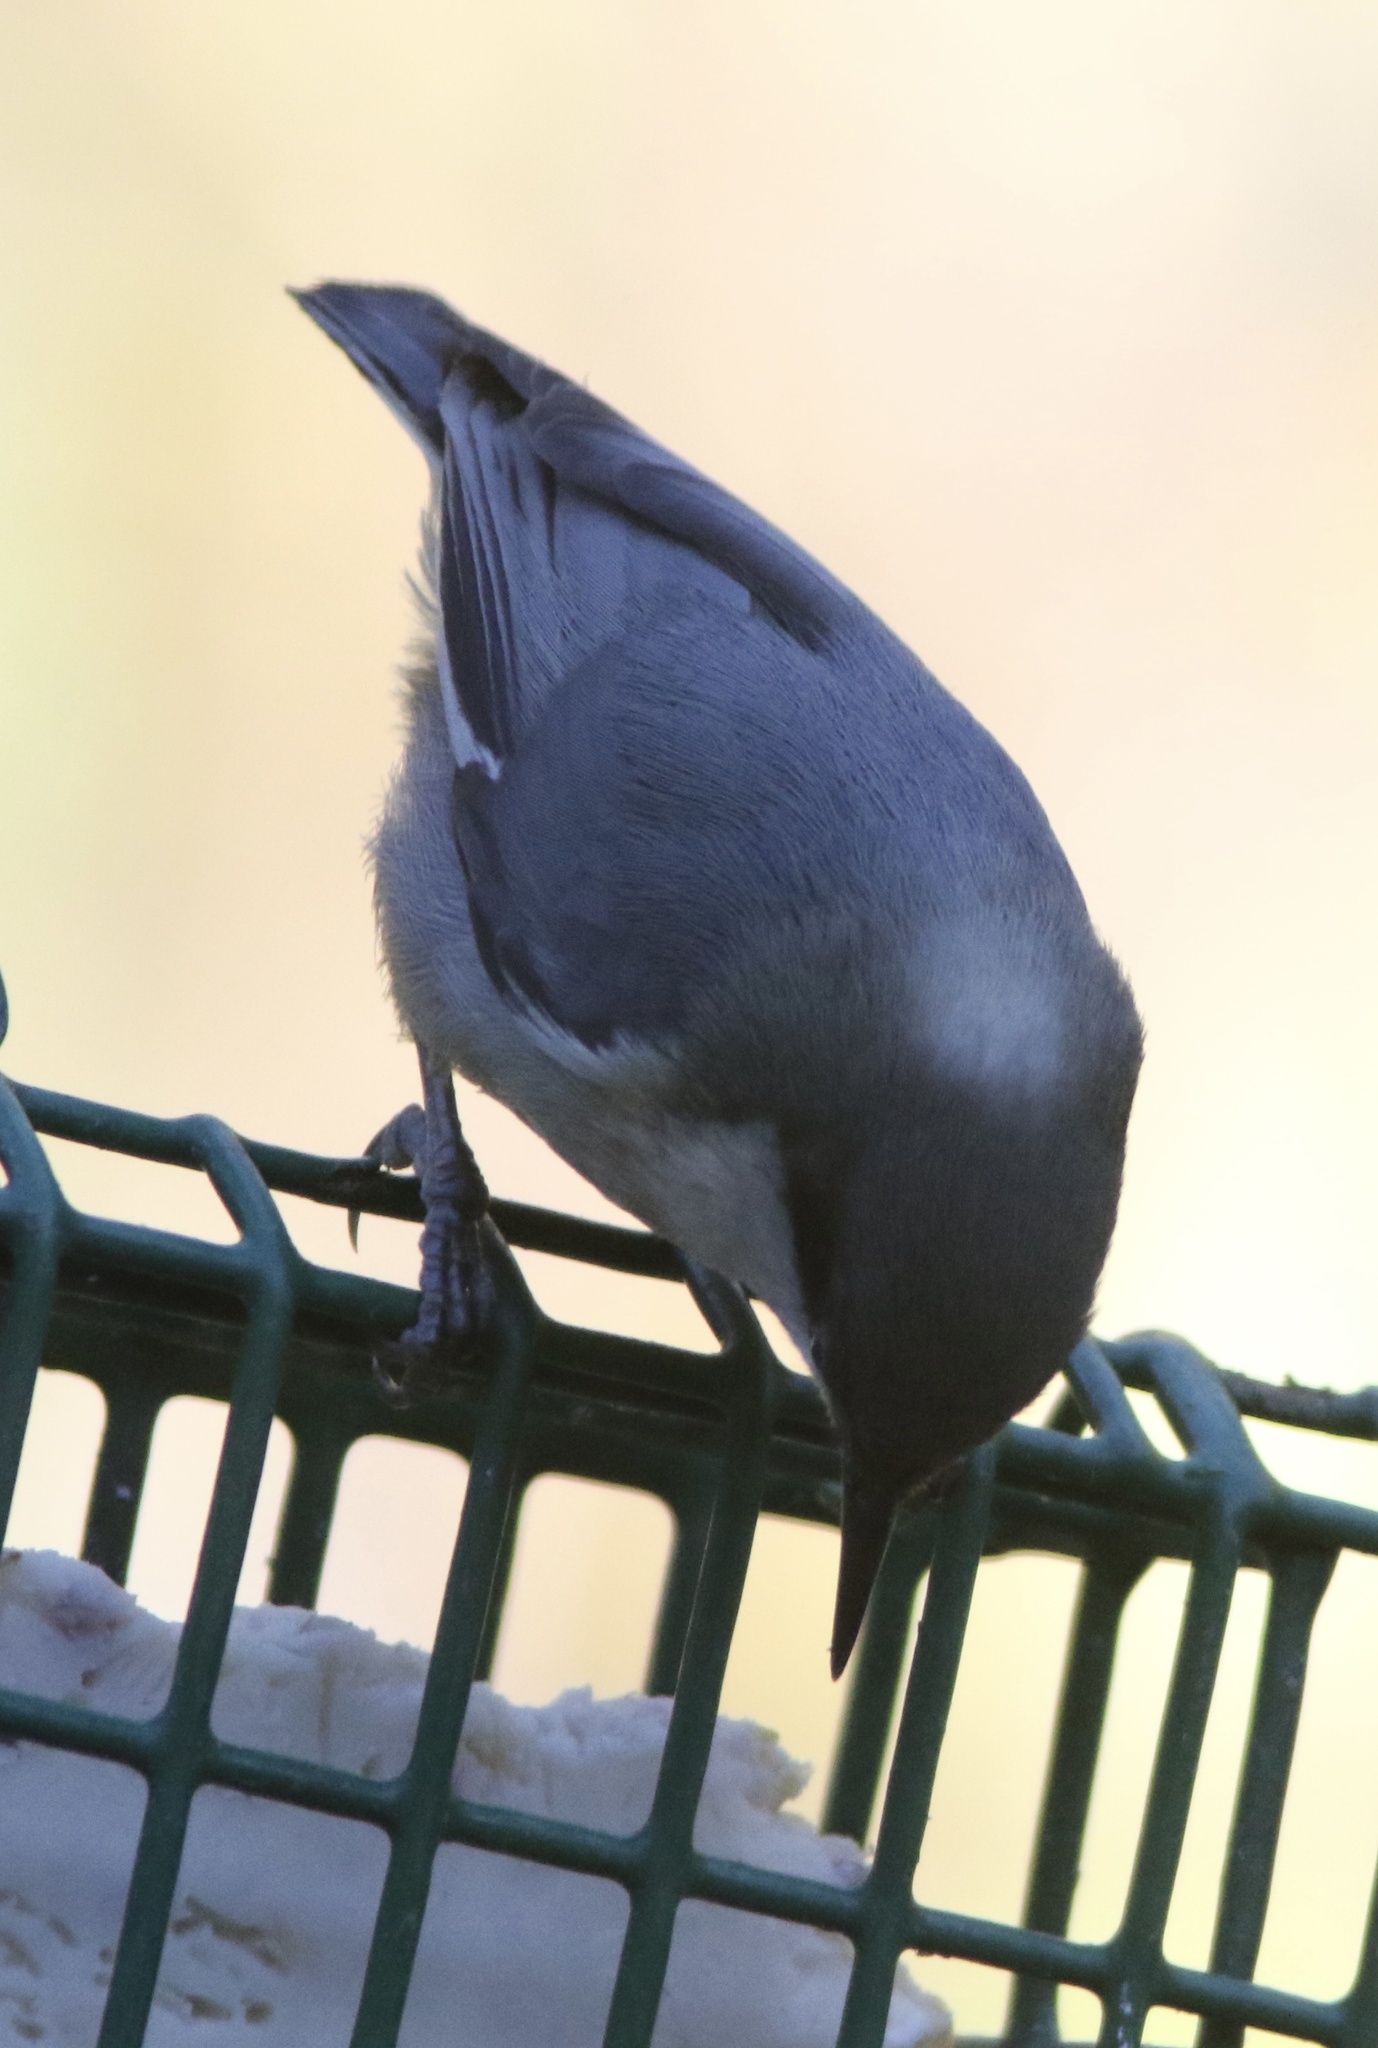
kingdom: Animalia
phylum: Chordata
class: Aves
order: Passeriformes
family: Sittidae
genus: Sitta
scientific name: Sitta pygmaea
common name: Pygmy nuthatch
